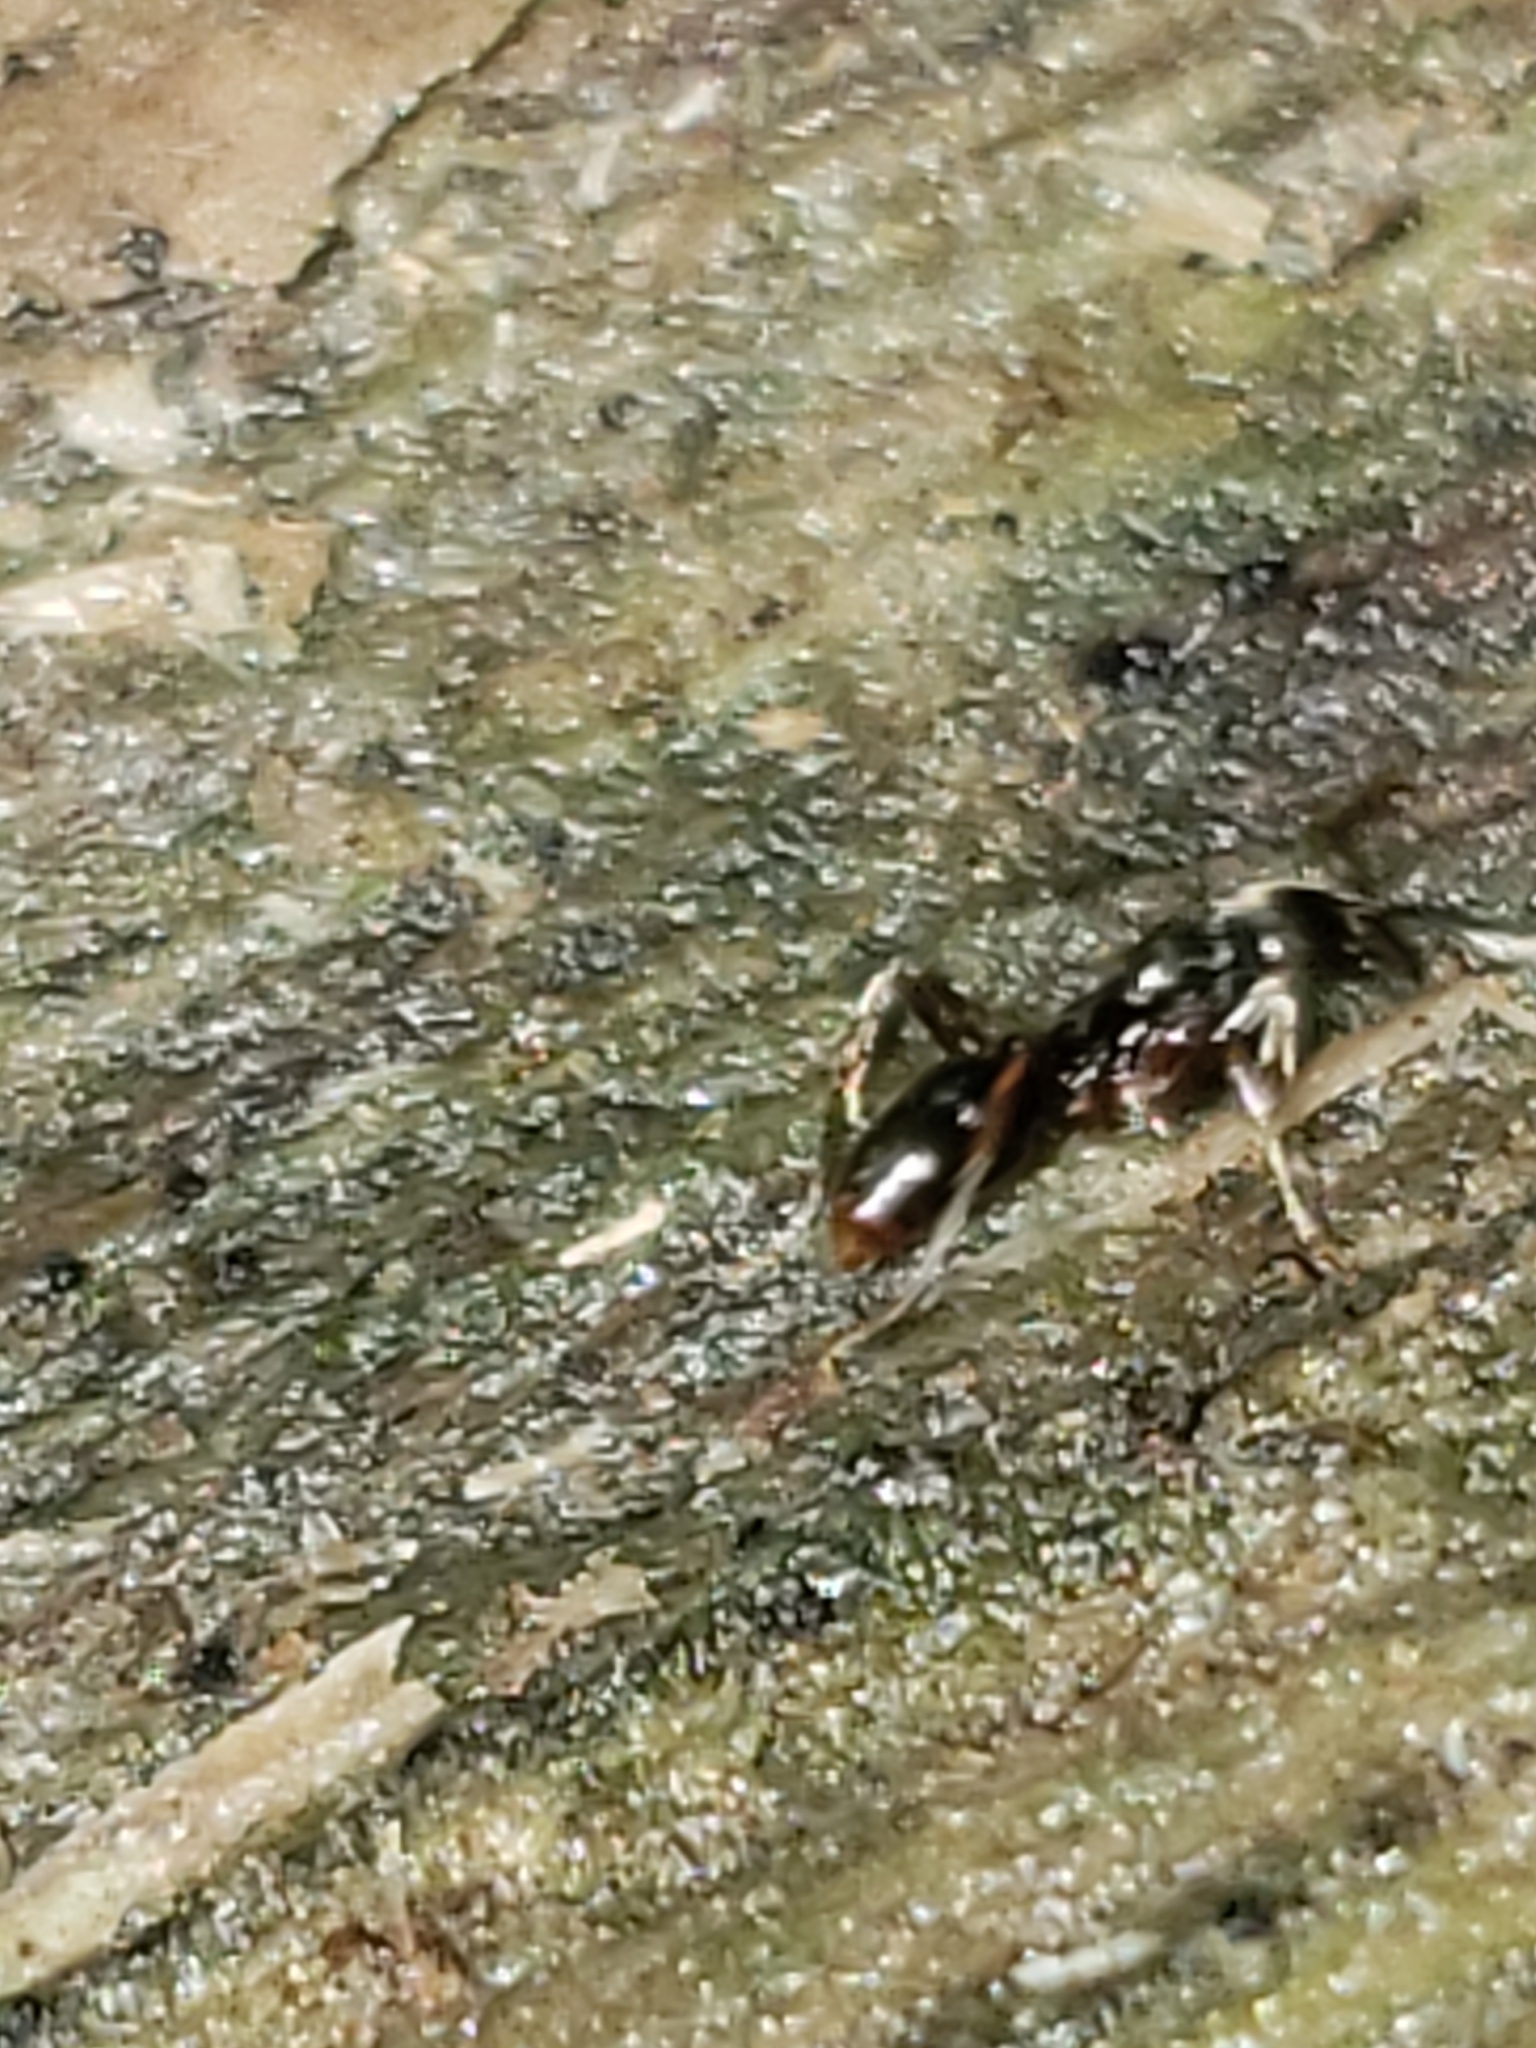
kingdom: Animalia
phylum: Arthropoda
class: Insecta
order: Hymenoptera
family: Formicidae
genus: Pachycondyla
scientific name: Pachycondyla chinensis
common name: Asian needle ant
